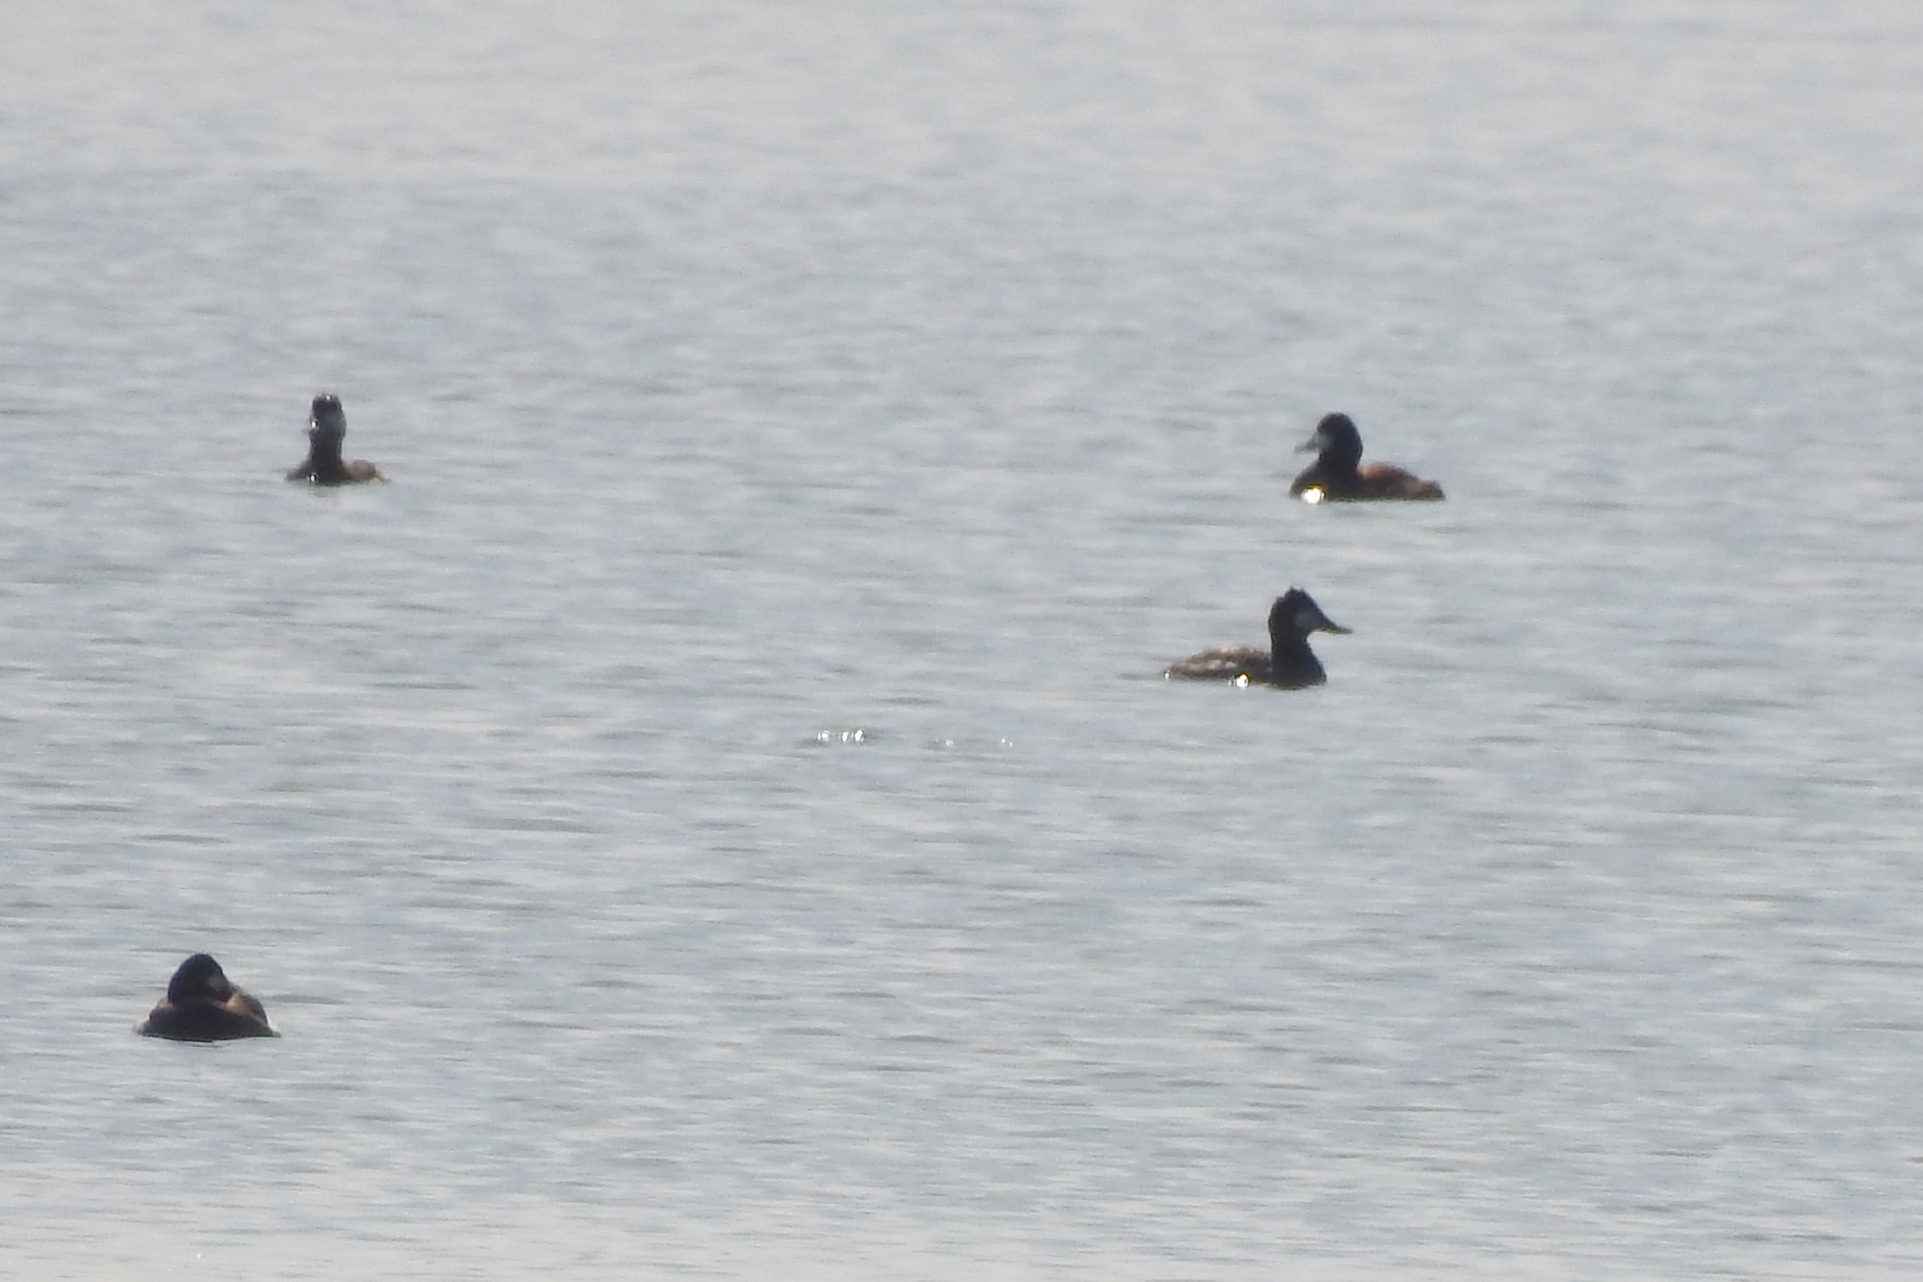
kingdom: Animalia
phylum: Chordata
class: Aves
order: Anseriformes
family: Anatidae
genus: Oxyura
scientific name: Oxyura jamaicensis
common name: Ruddy duck
